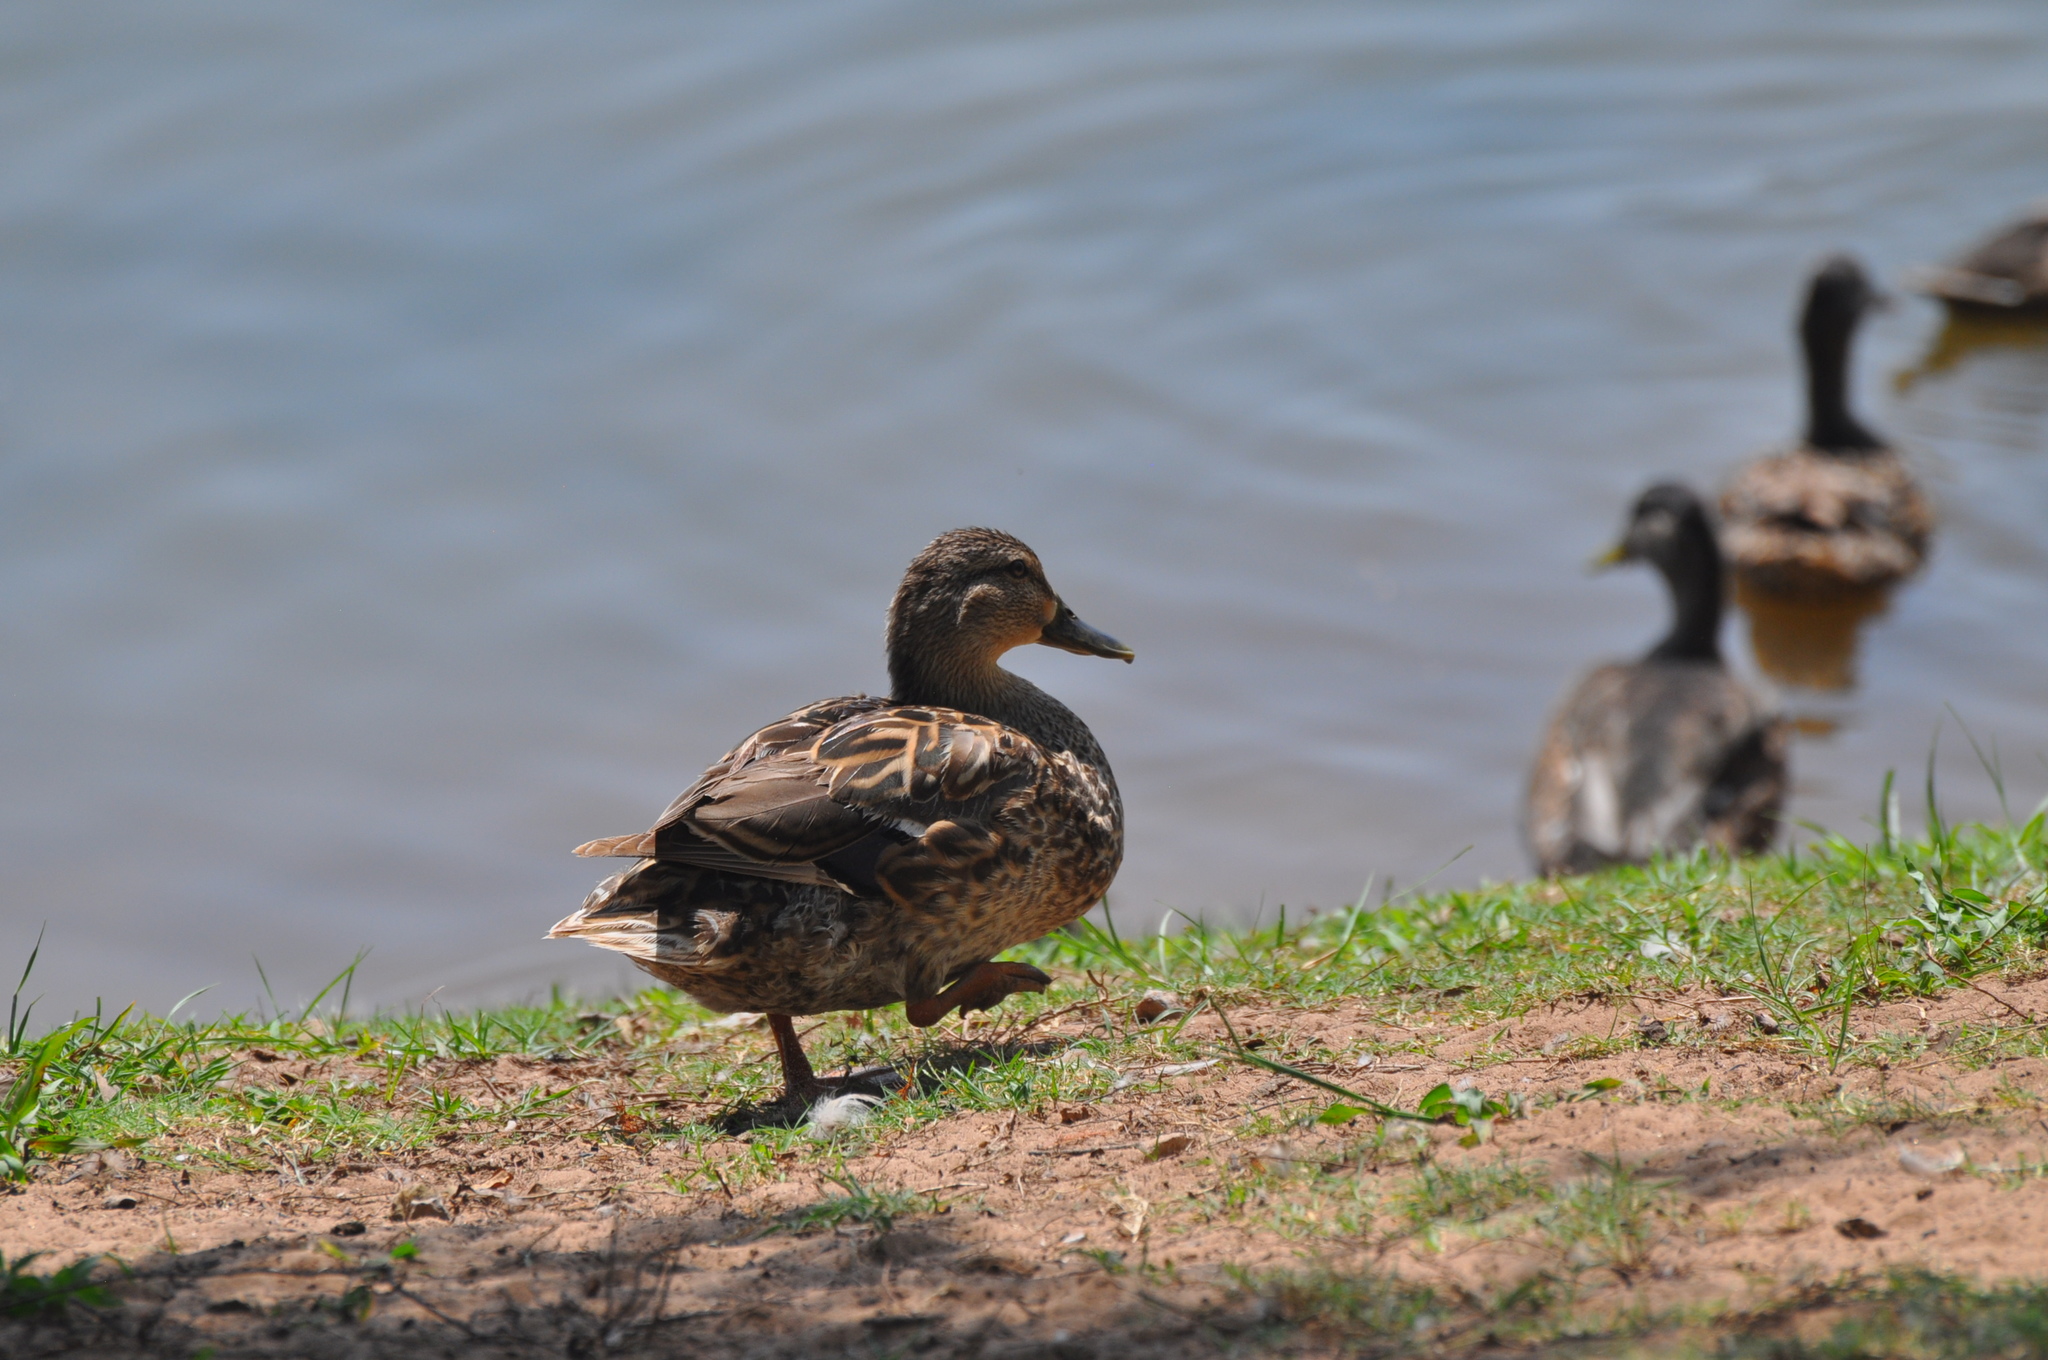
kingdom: Animalia
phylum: Chordata
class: Aves
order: Anseriformes
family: Anatidae
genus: Anas
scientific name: Anas platyrhynchos
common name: Mallard
